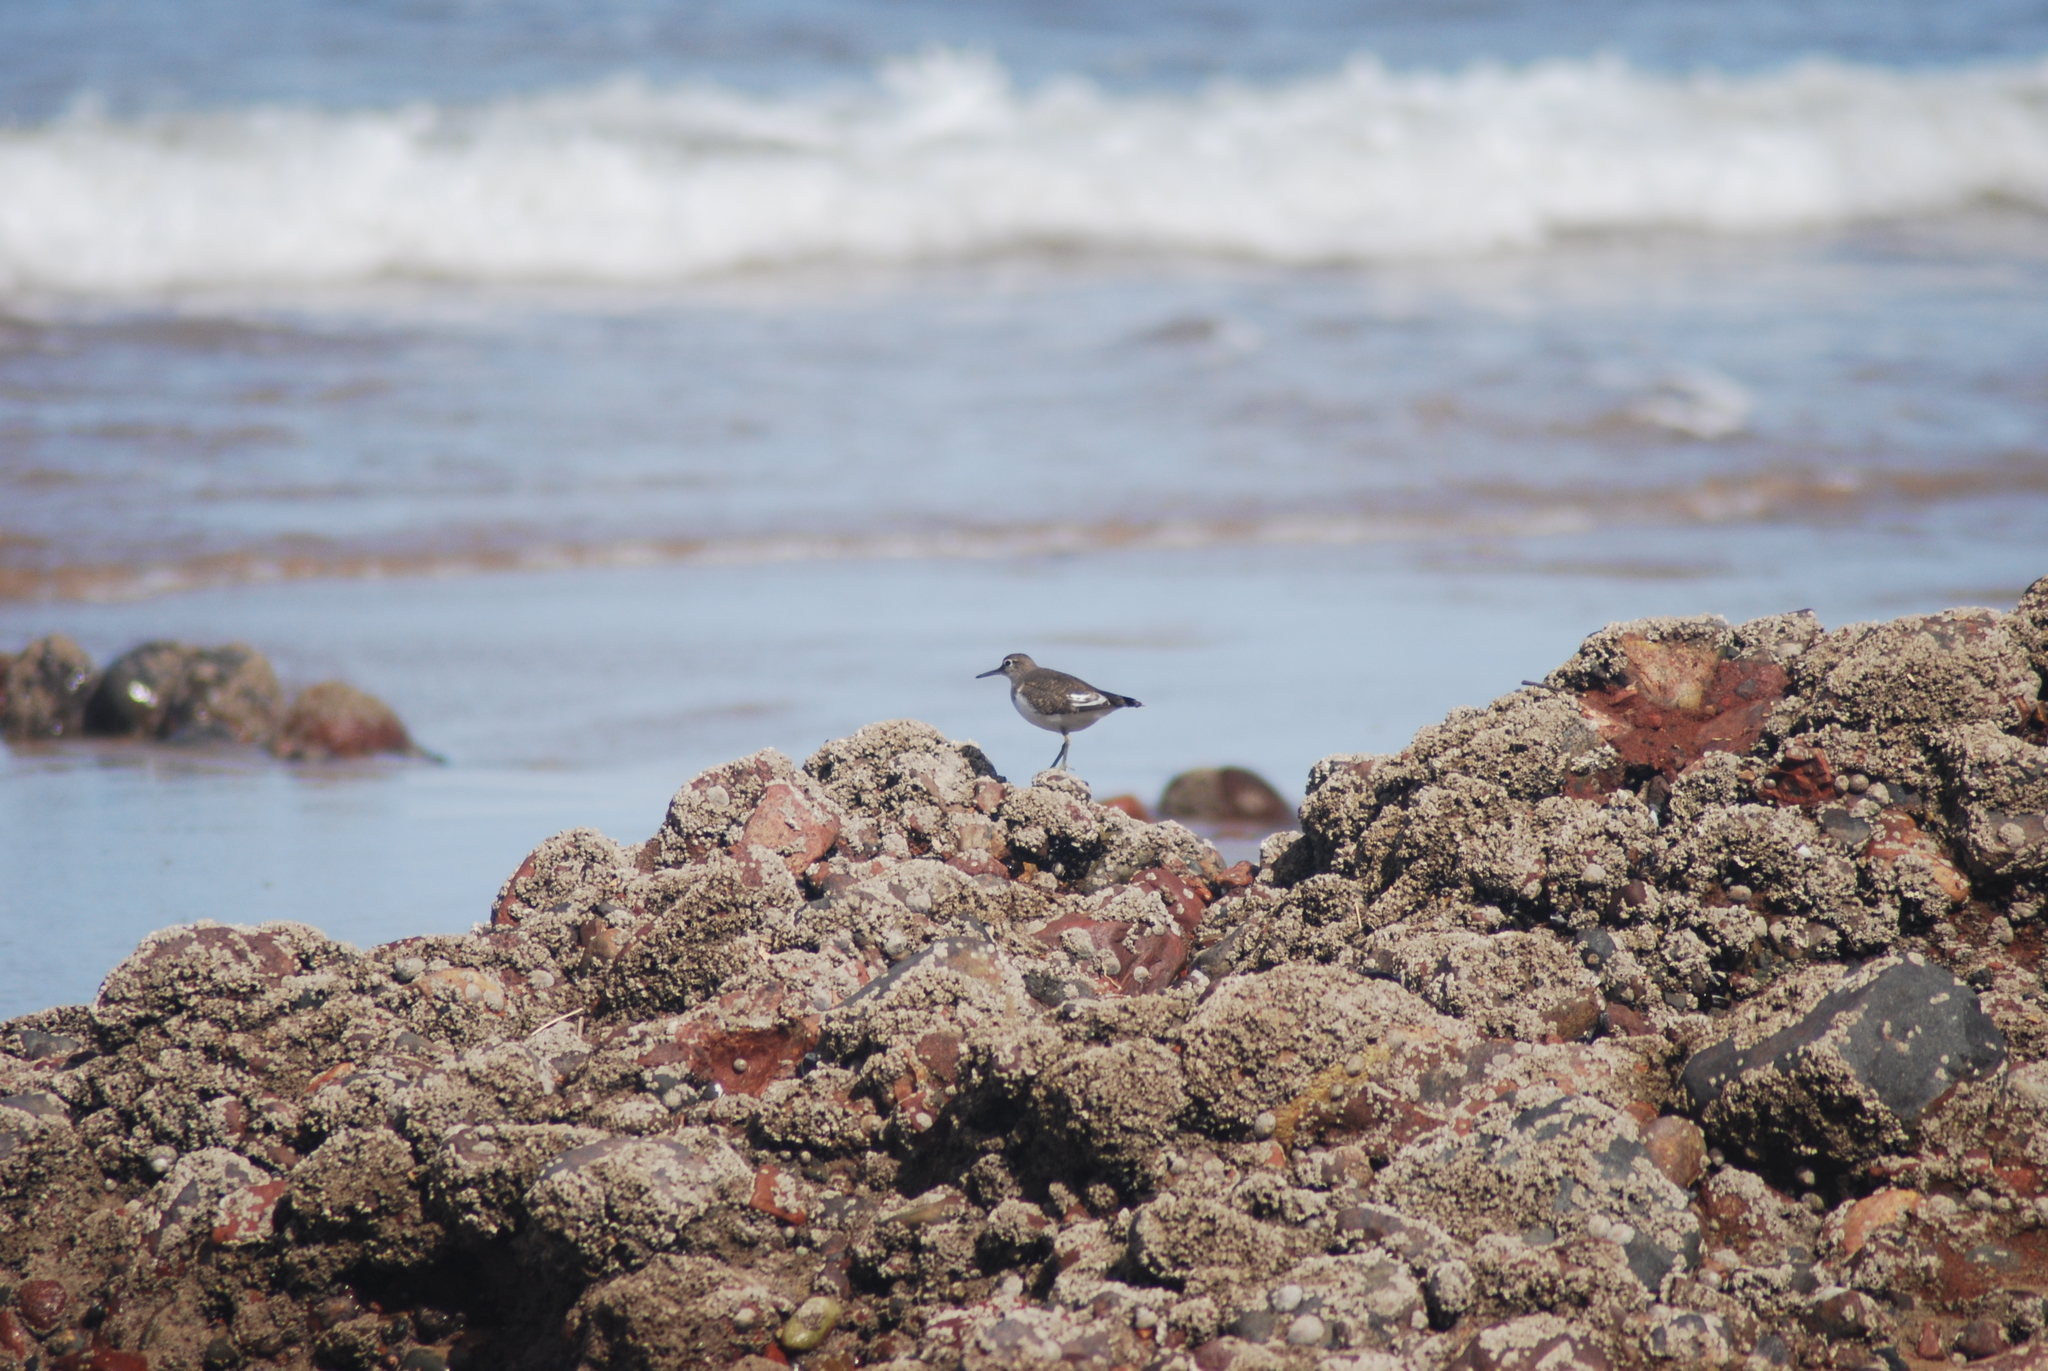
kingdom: Animalia
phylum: Chordata
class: Aves
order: Charadriiformes
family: Scolopacidae
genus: Actitis
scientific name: Actitis hypoleucos
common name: Common sandpiper
